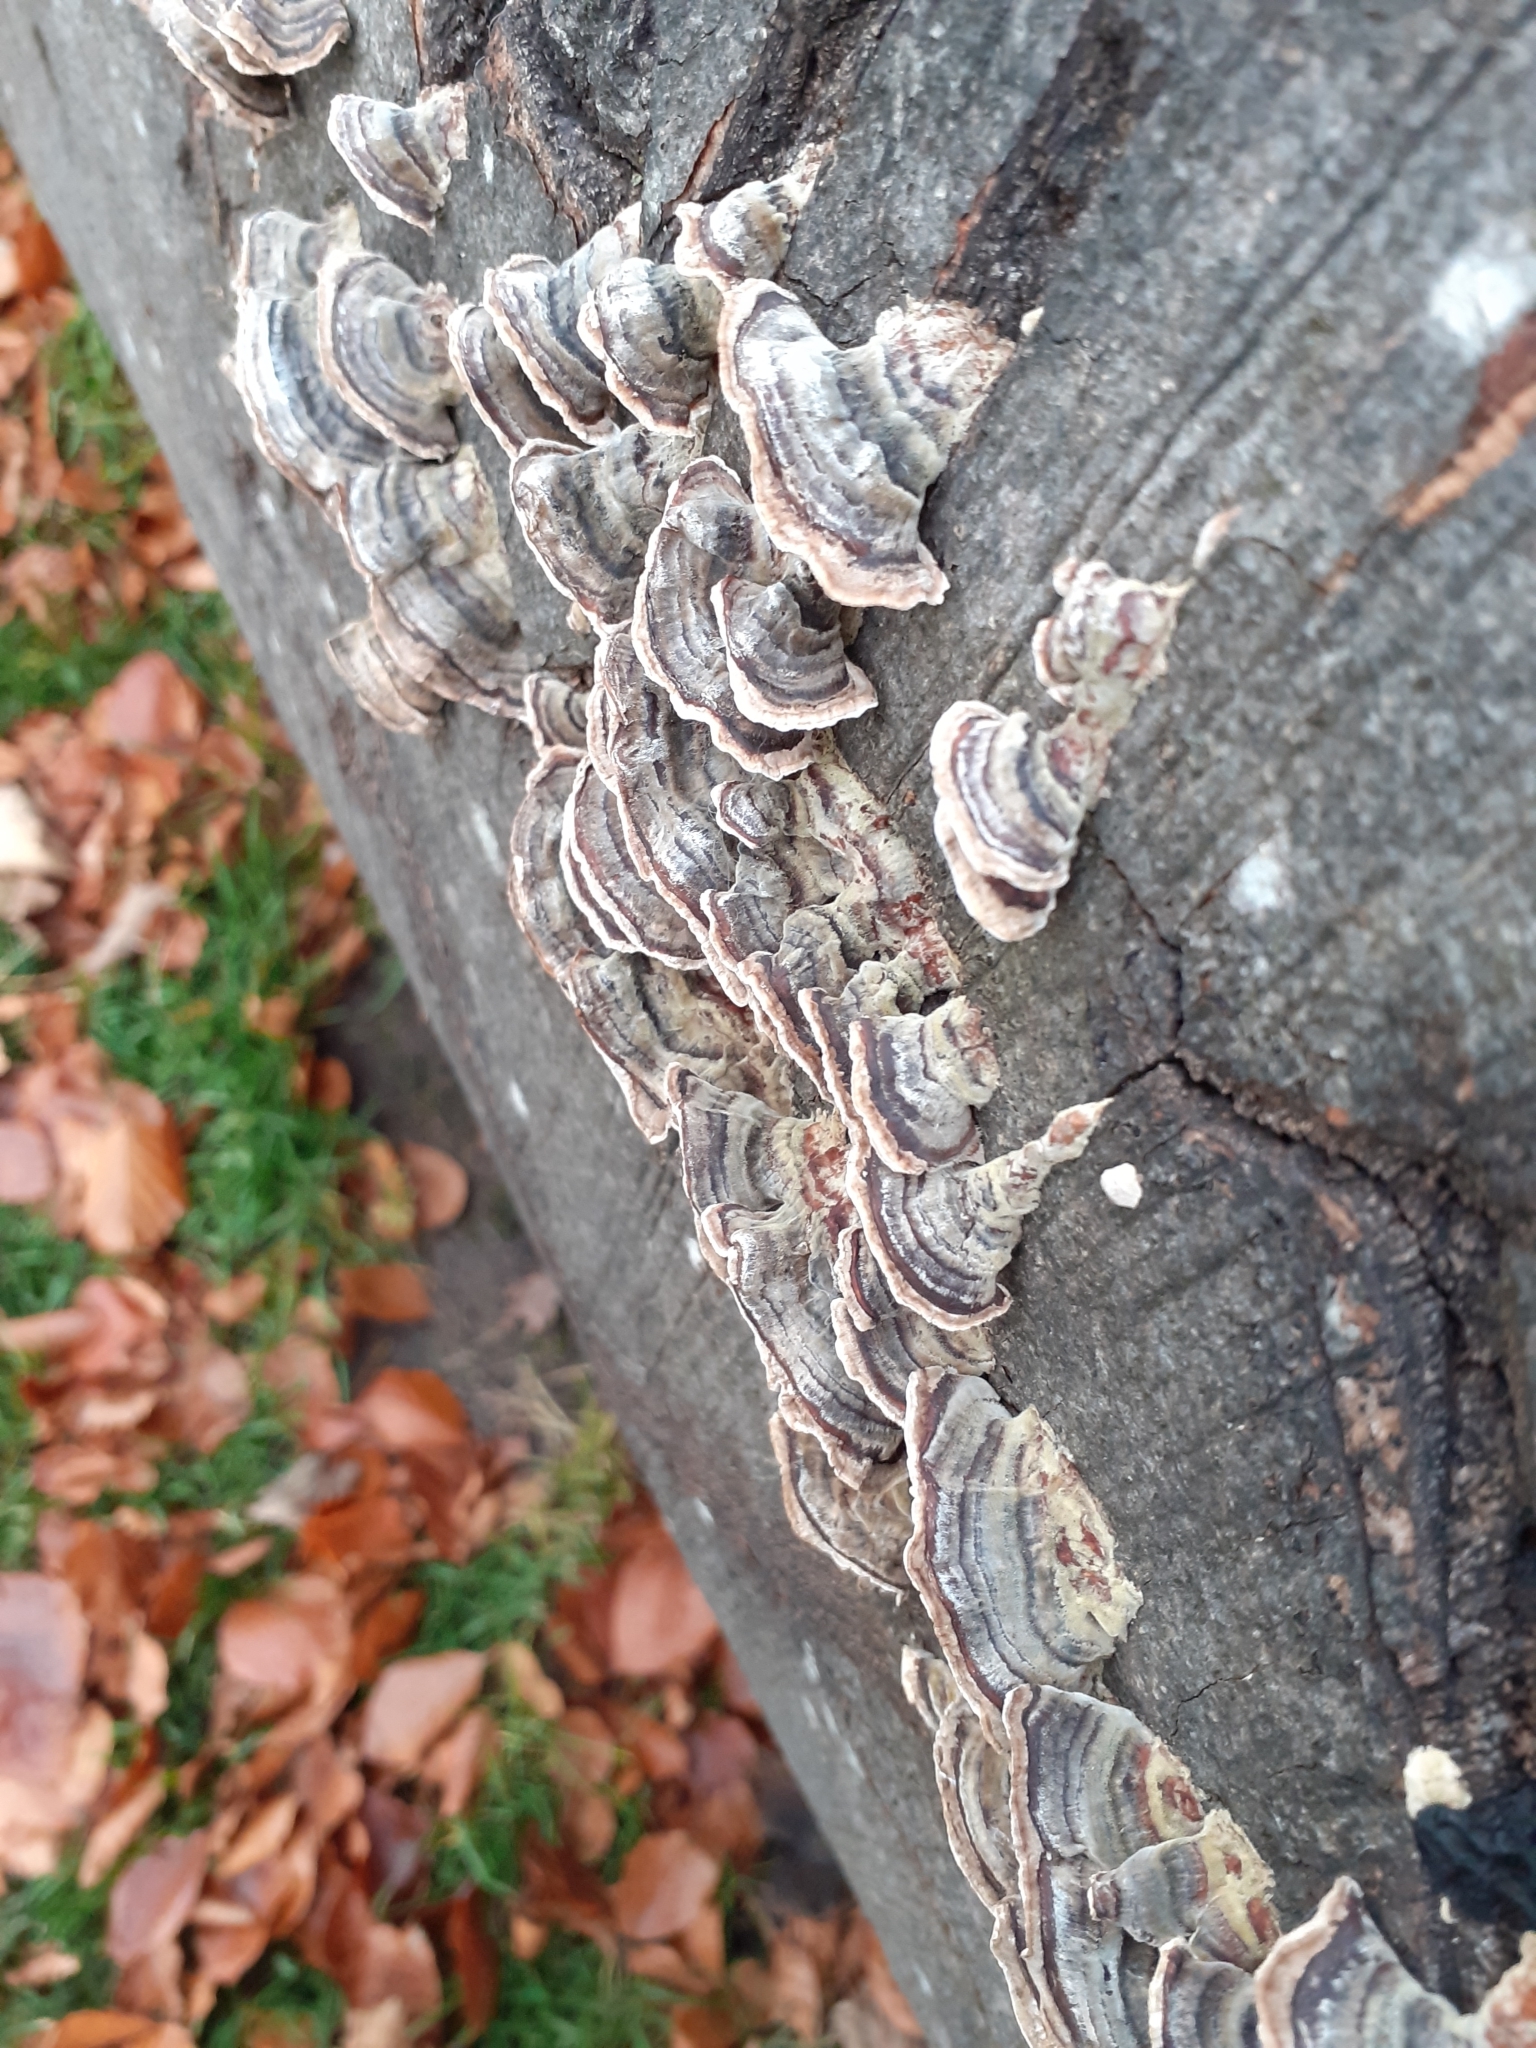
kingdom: Fungi
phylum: Basidiomycota
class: Agaricomycetes
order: Polyporales
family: Polyporaceae
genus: Trametes
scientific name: Trametes versicolor
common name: Turkeytail
